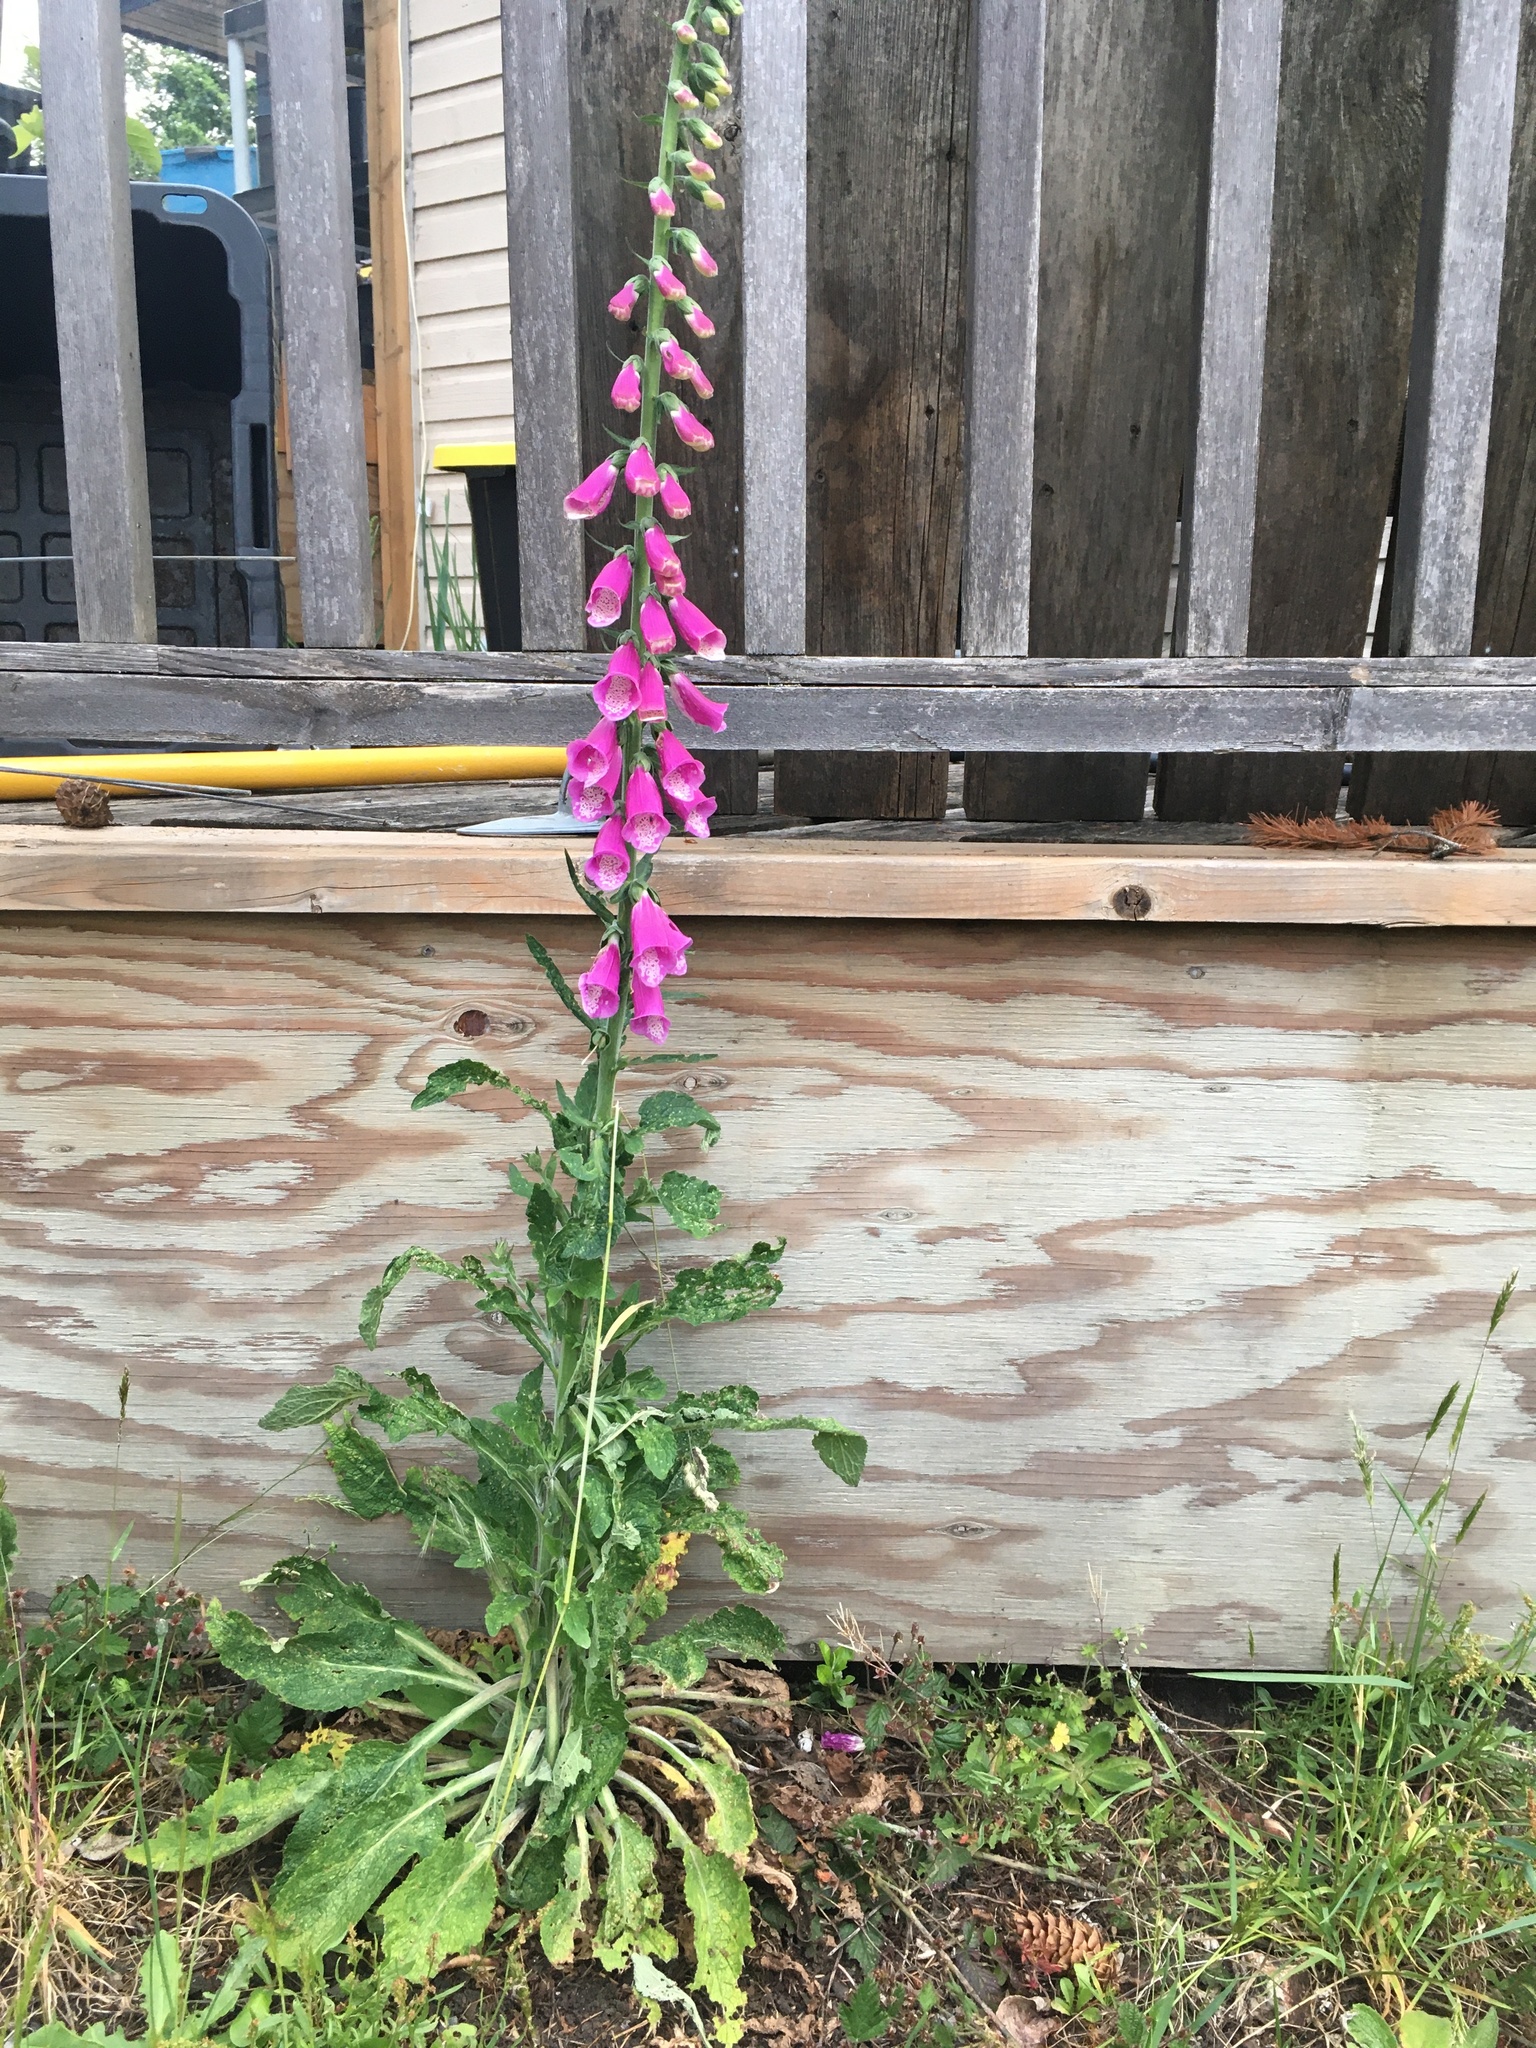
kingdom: Plantae
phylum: Tracheophyta
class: Magnoliopsida
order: Lamiales
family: Plantaginaceae
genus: Digitalis
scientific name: Digitalis purpurea
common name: Foxglove
